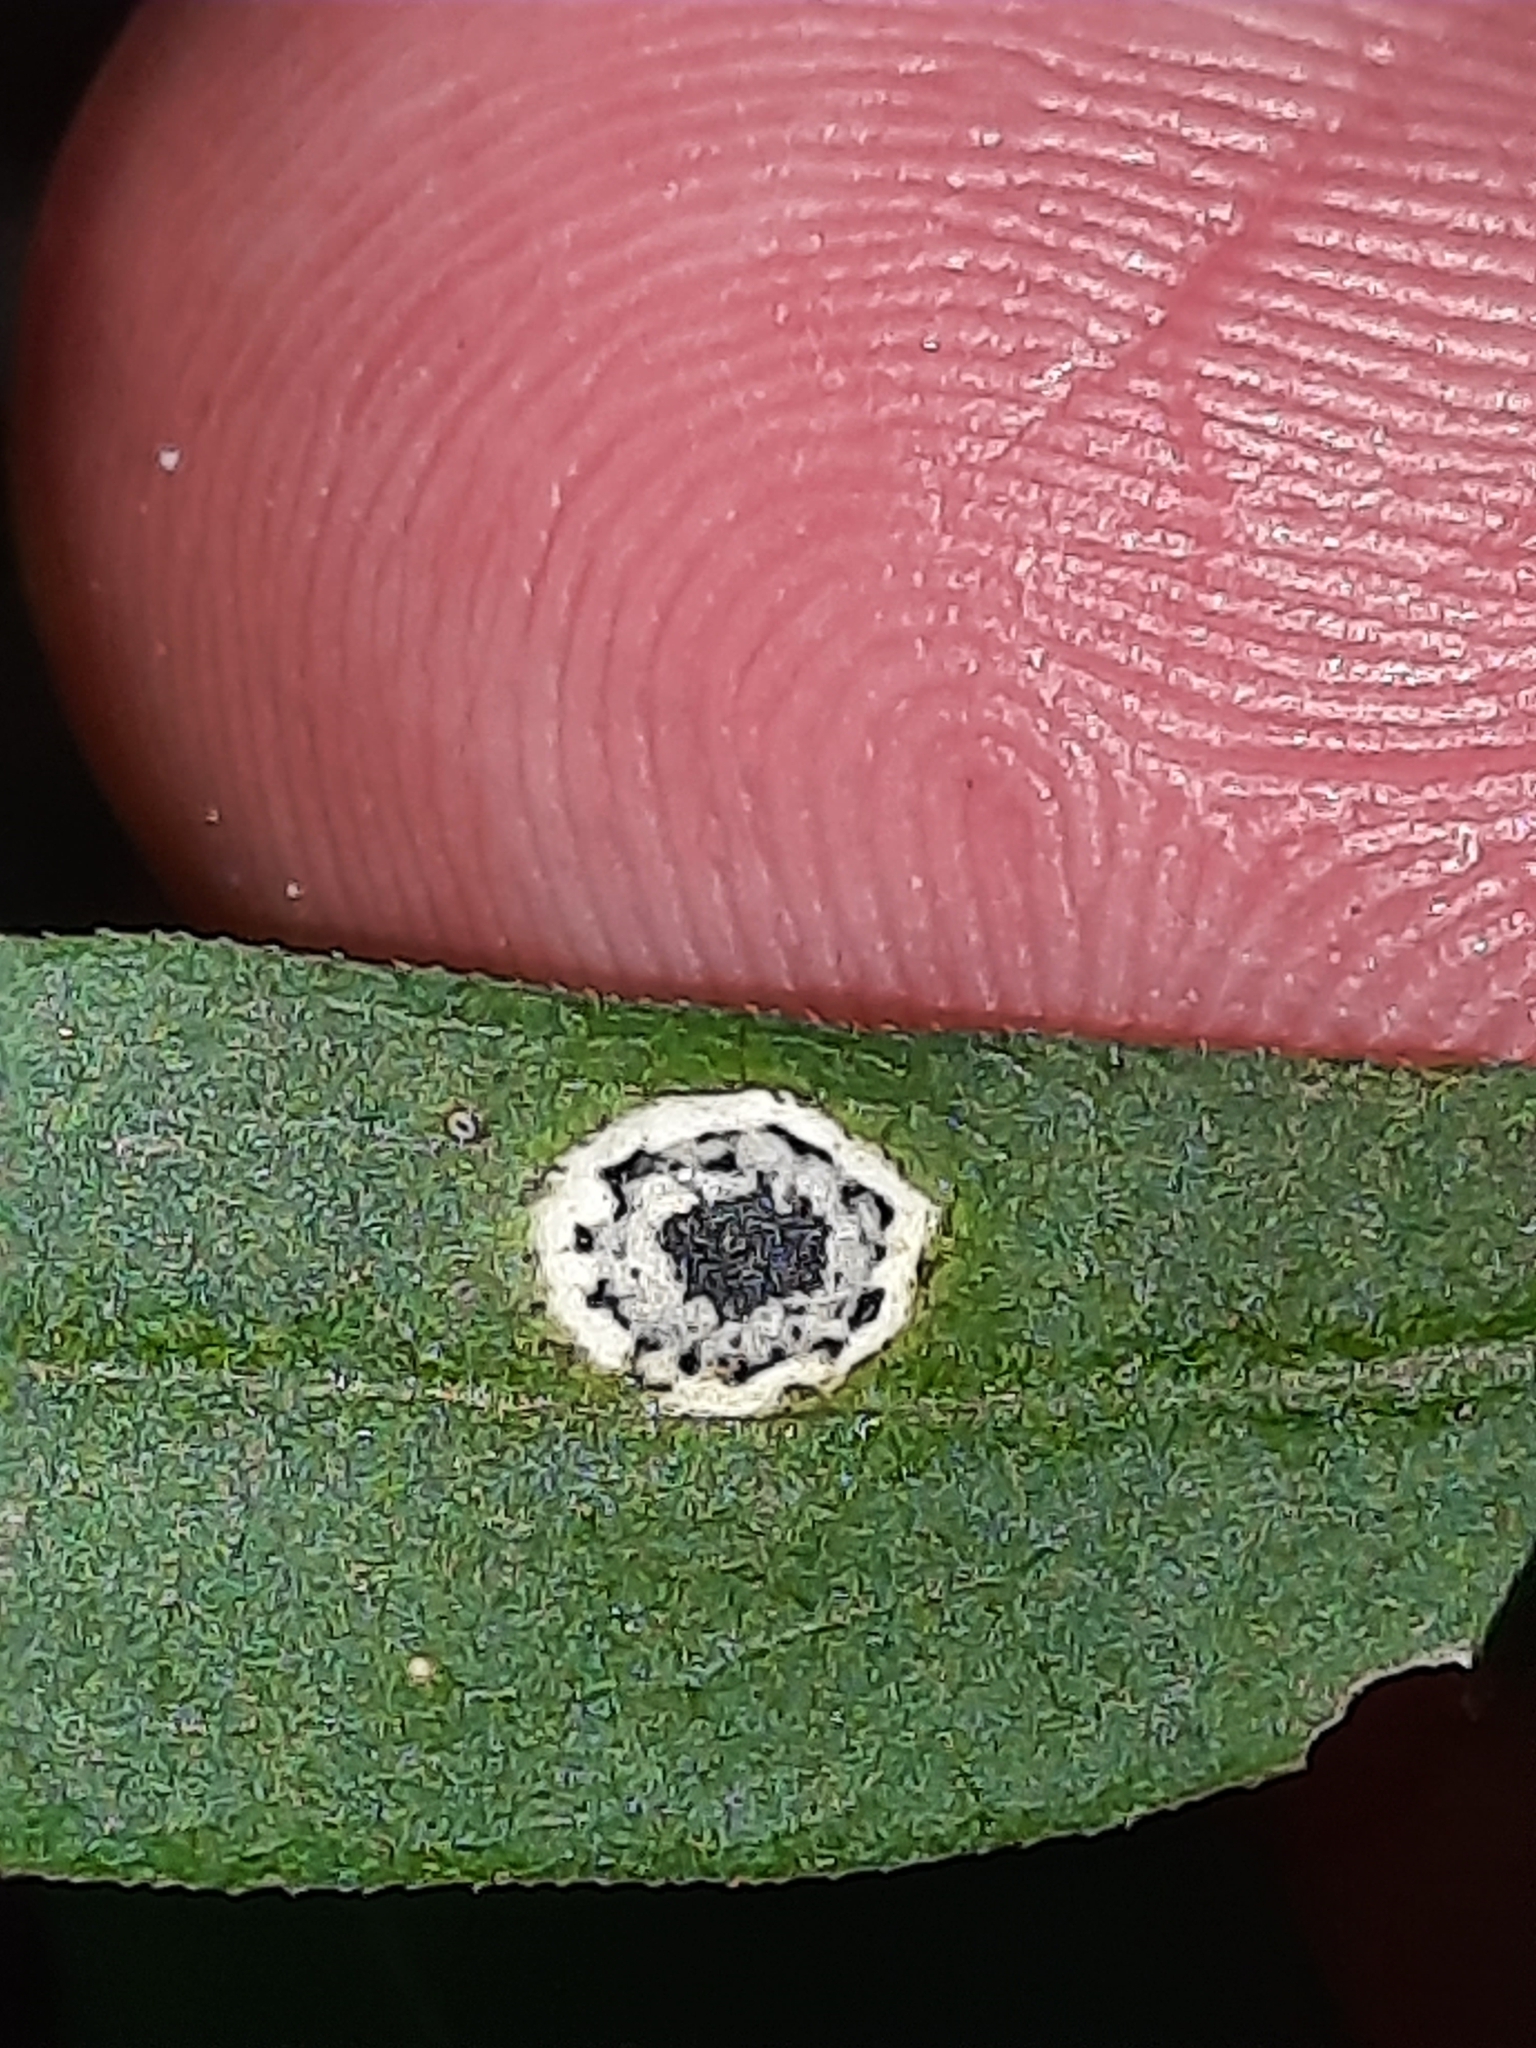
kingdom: Plantae
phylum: Tracheophyta
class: Magnoliopsida
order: Asterales
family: Asteraceae
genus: Solidago
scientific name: Solidago caesia
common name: Woodland goldenrod
